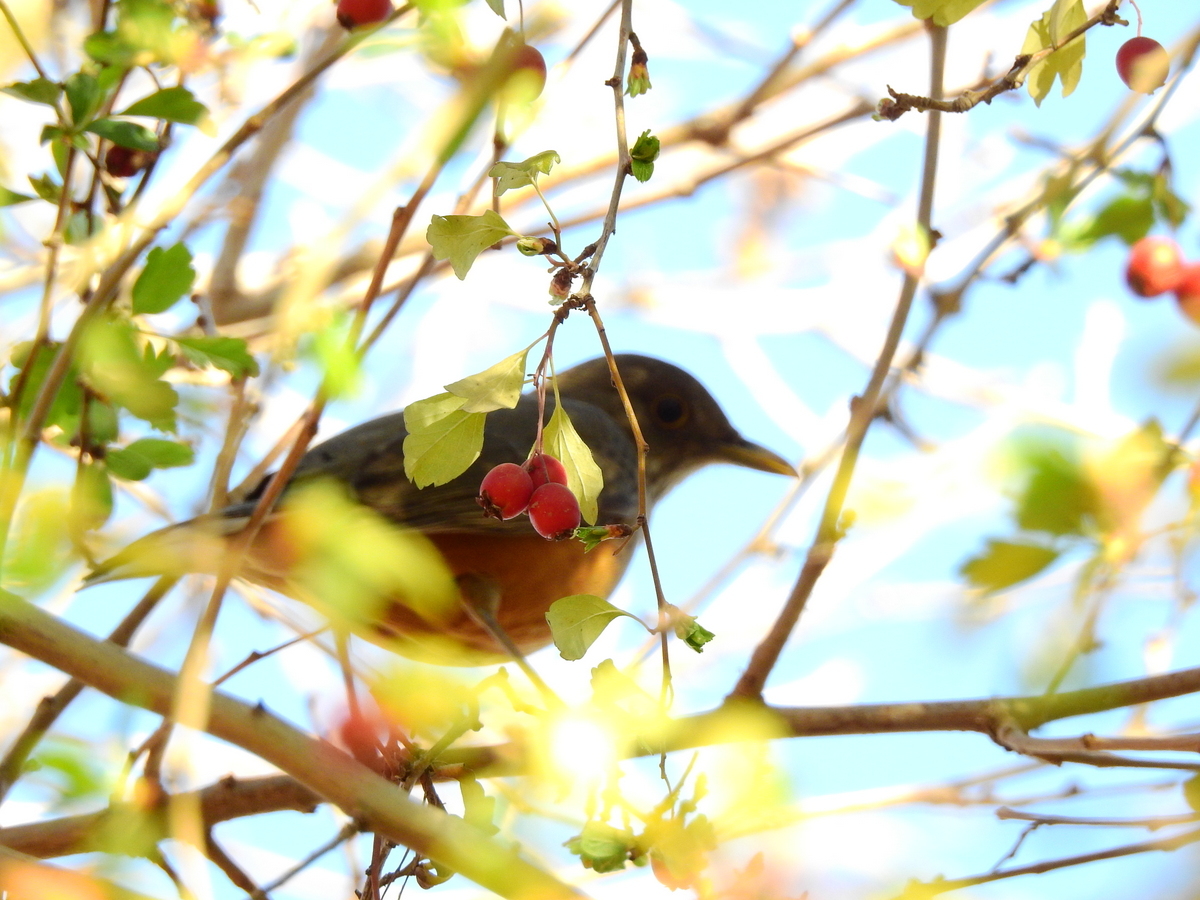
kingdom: Animalia
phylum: Chordata
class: Aves
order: Passeriformes
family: Turdidae
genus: Turdus
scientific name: Turdus rufiventris
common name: Rufous-bellied thrush
